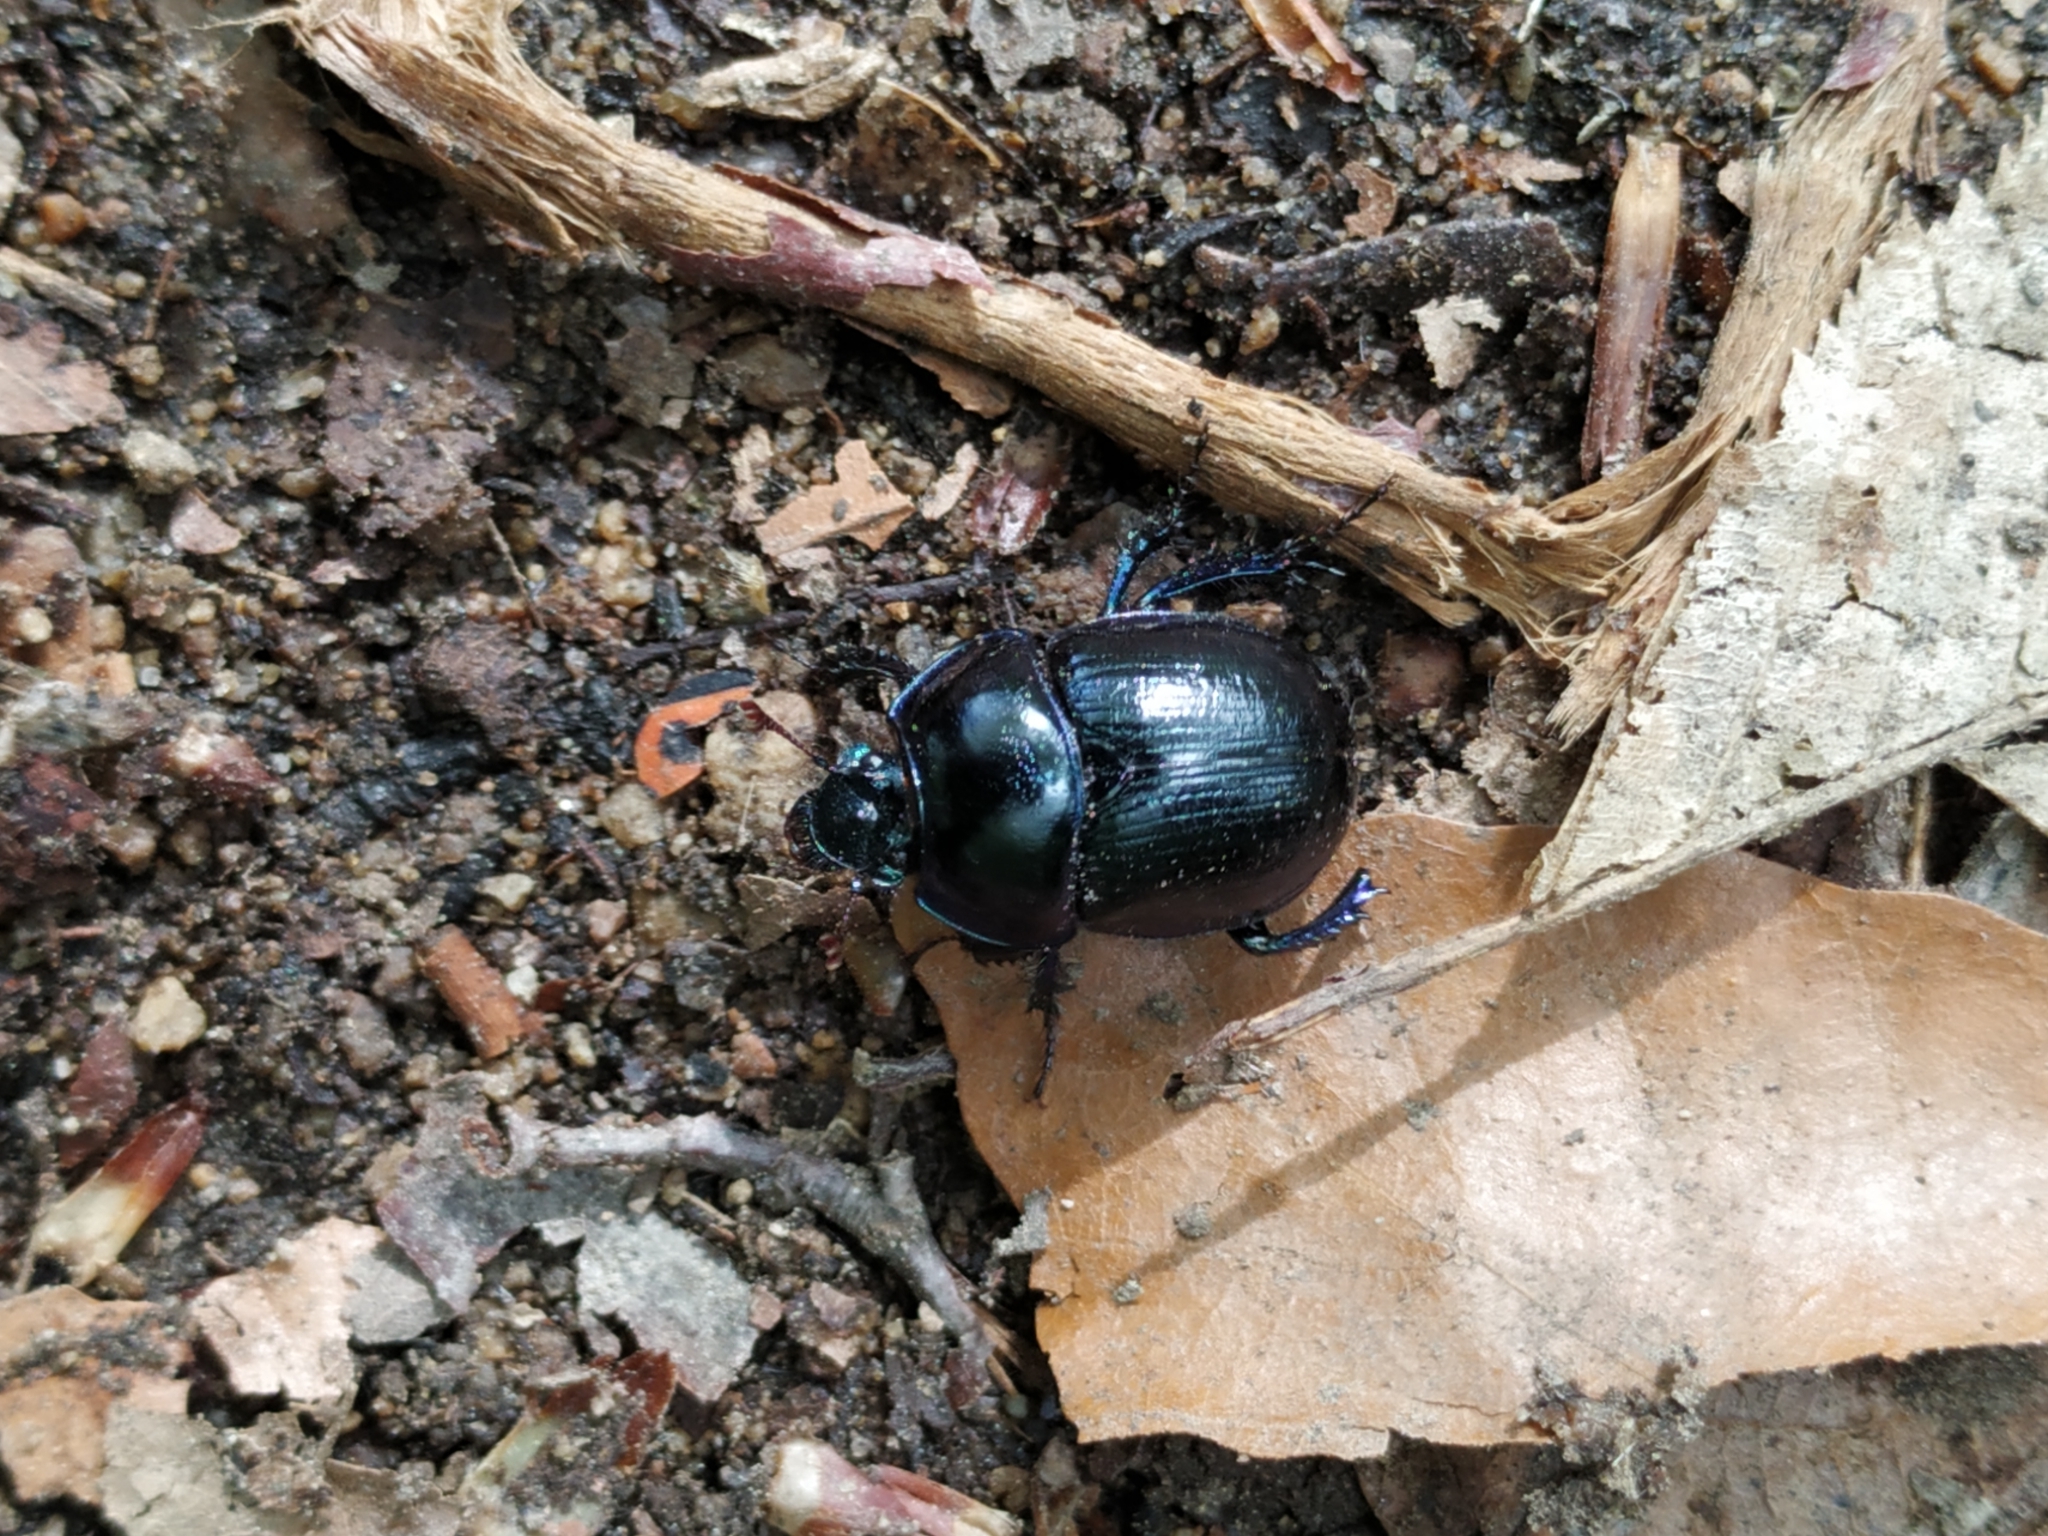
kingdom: Animalia
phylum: Arthropoda
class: Insecta
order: Coleoptera
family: Geotrupidae
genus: Anoplotrupes
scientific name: Anoplotrupes stercorosus
